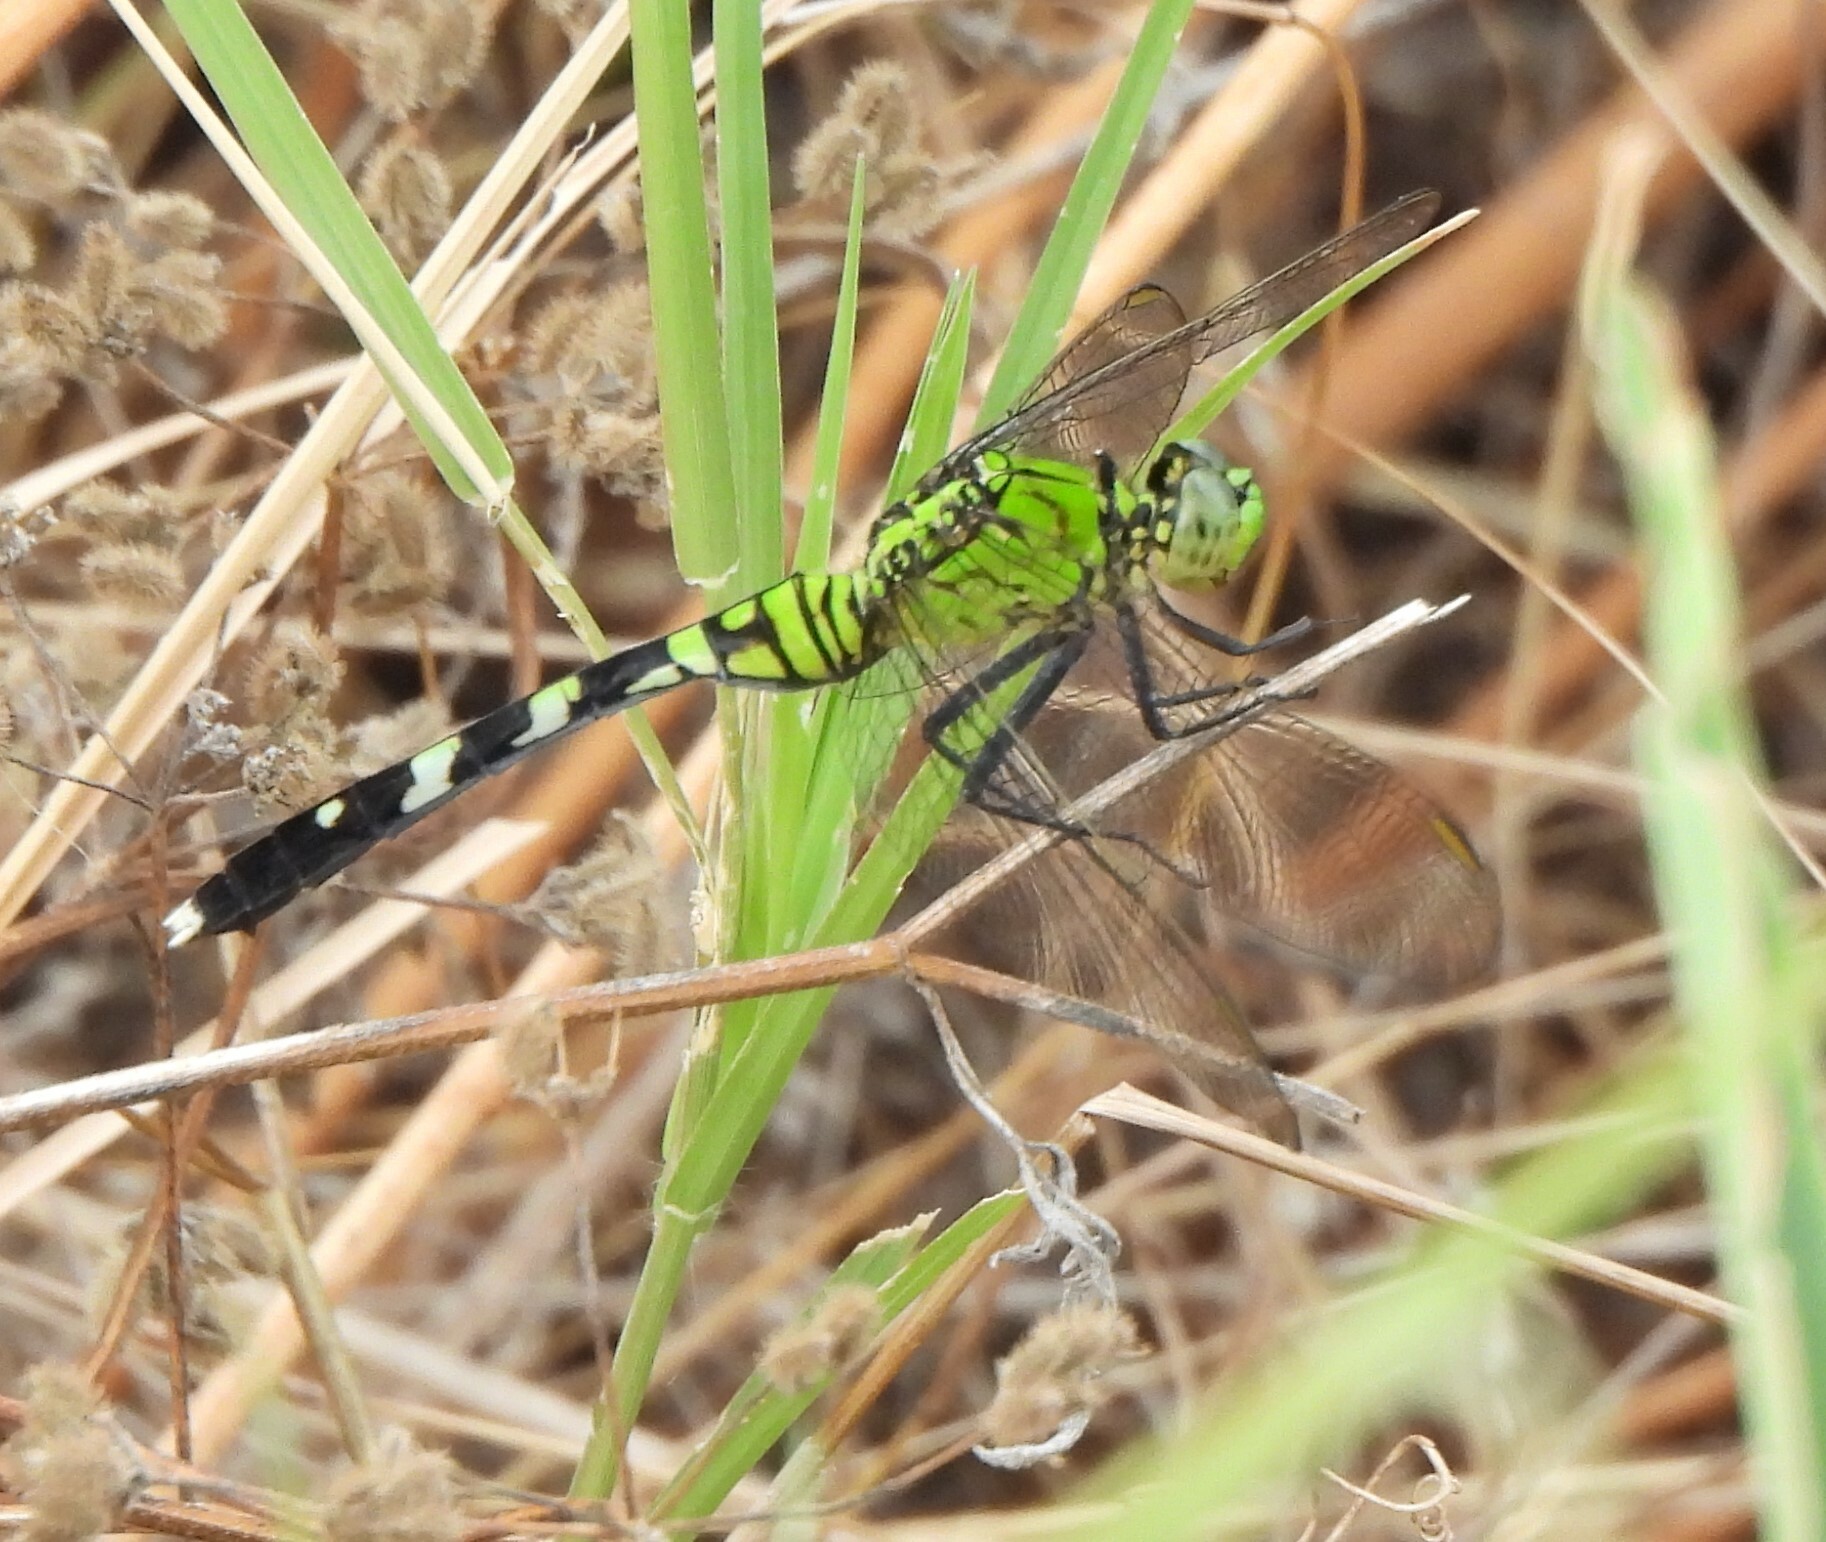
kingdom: Animalia
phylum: Arthropoda
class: Insecta
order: Odonata
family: Libellulidae
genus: Erythemis
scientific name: Erythemis simplicicollis
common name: Eastern pondhawk
